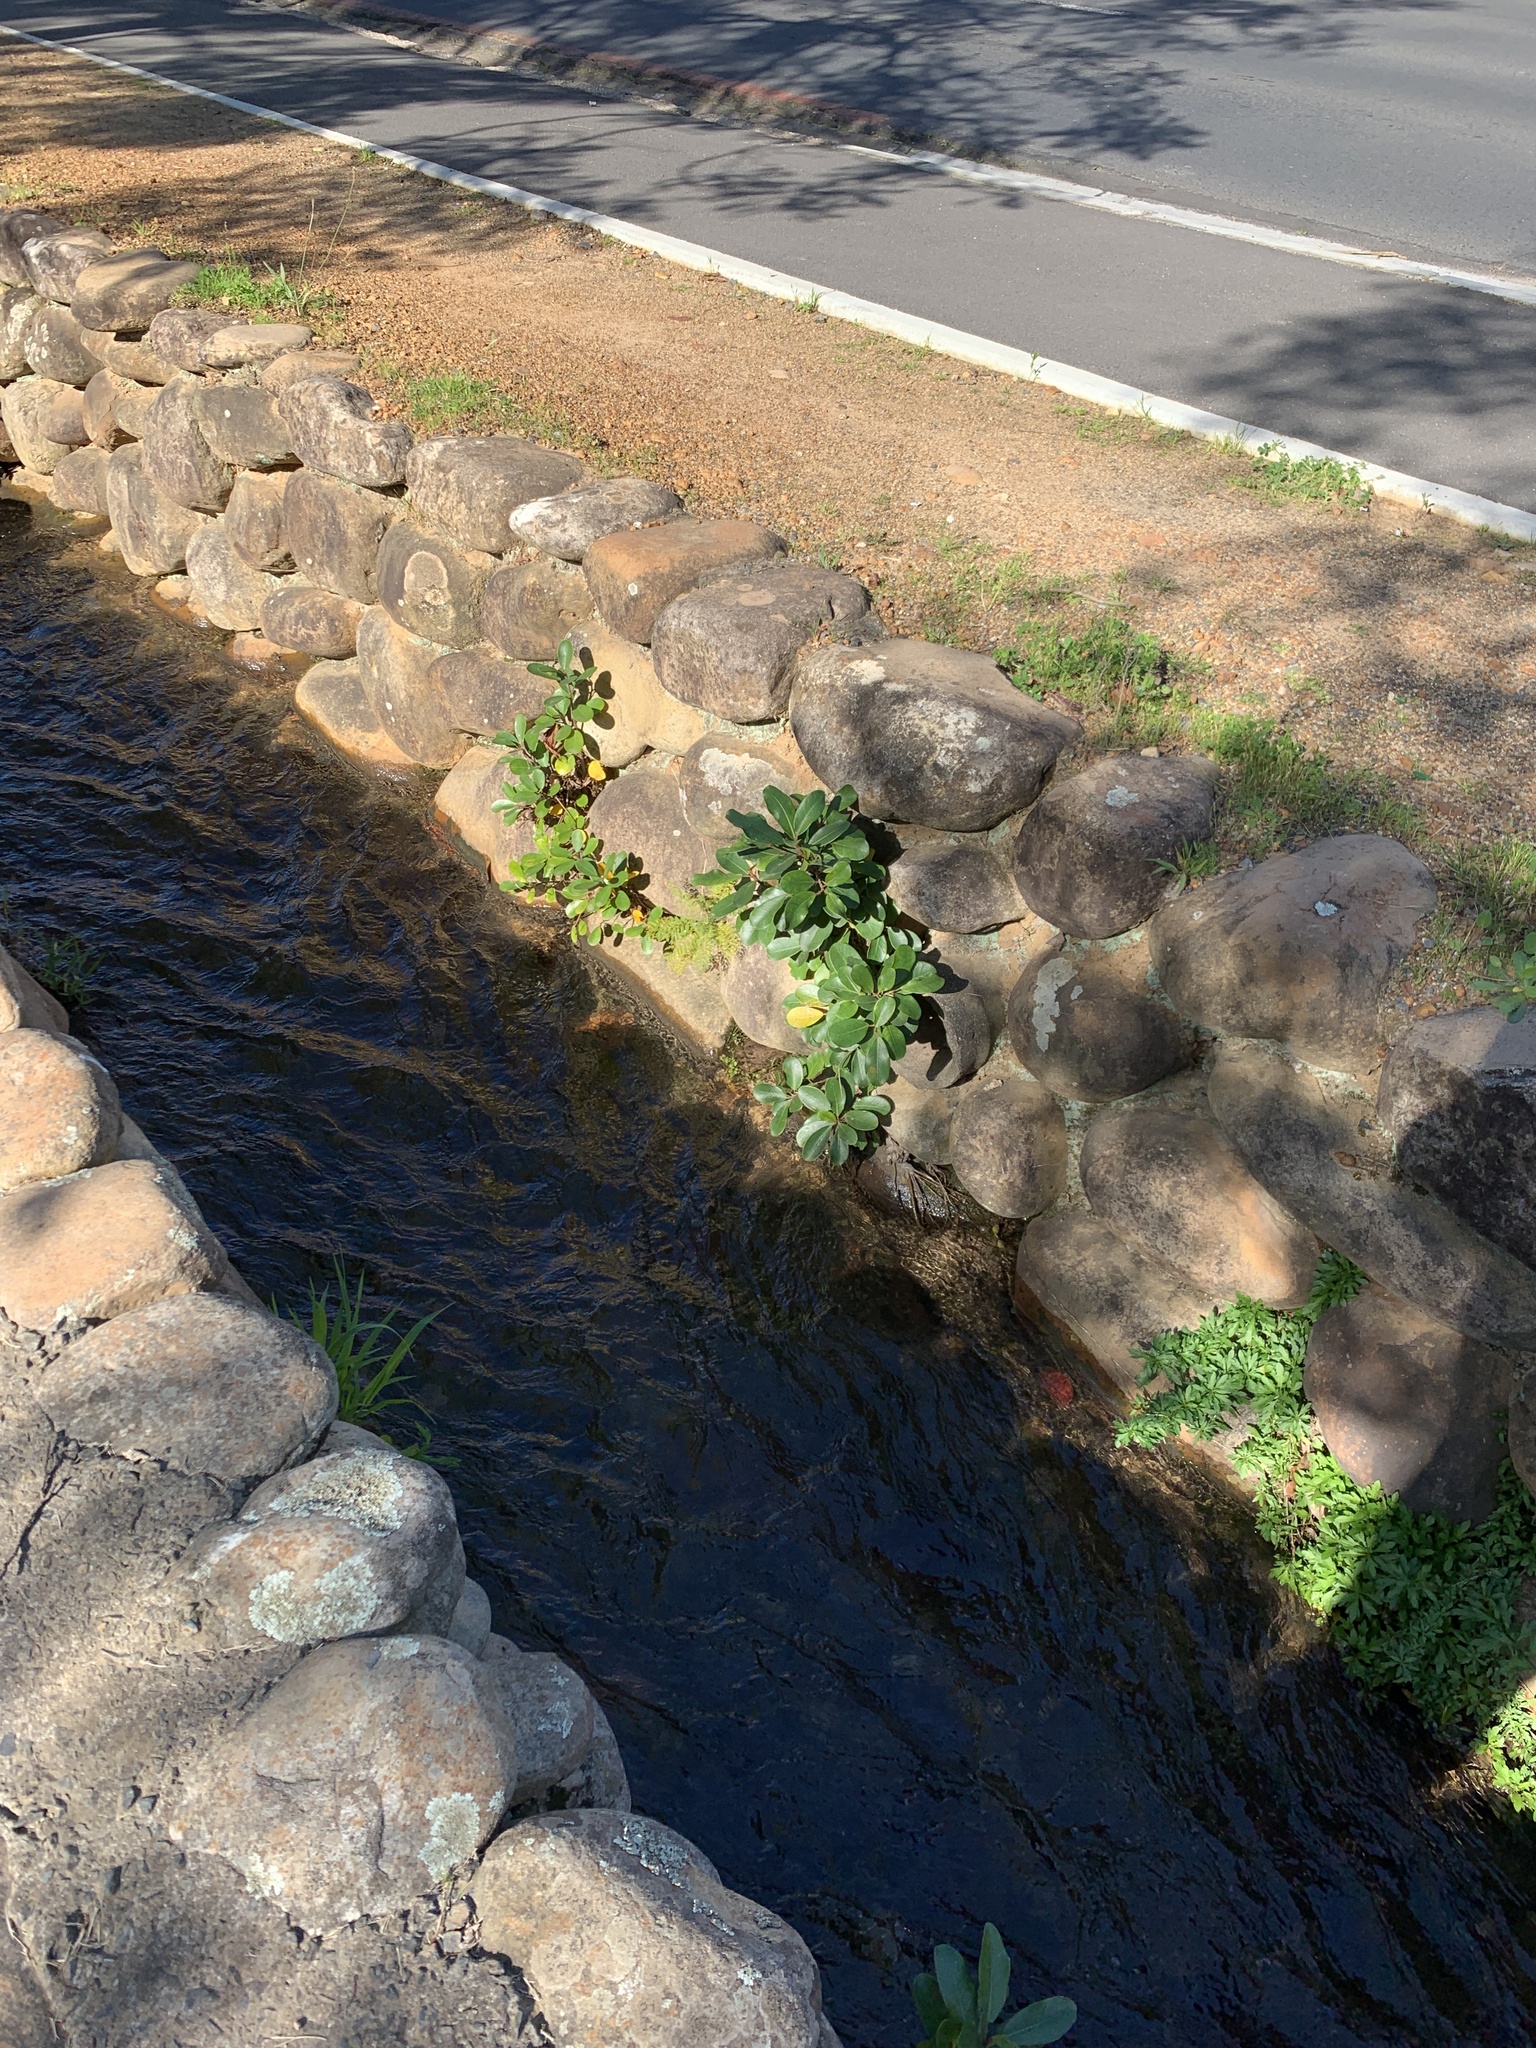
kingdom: Plantae
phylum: Tracheophyta
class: Magnoliopsida
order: Rosales
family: Moraceae
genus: Ficus
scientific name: Ficus thonningii
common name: Fig
